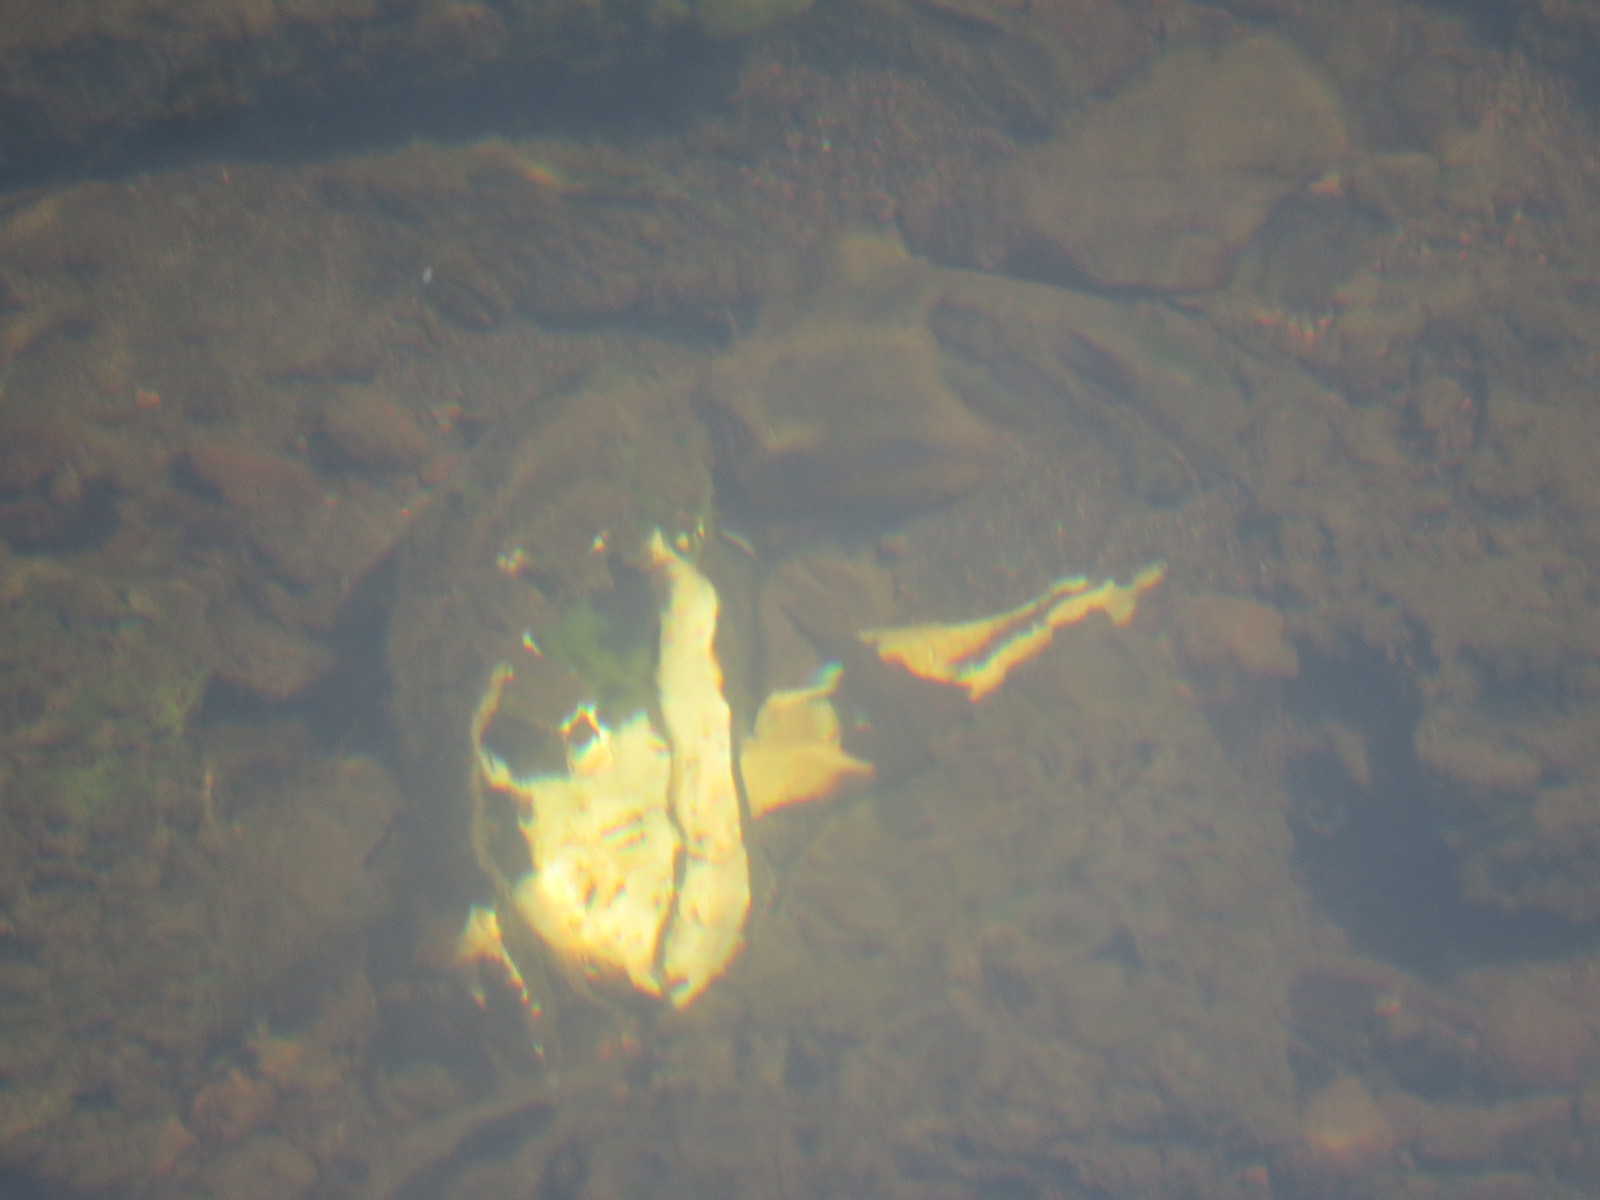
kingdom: Animalia
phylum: Mollusca
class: Bivalvia
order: Unionida
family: Unionidae
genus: Gonidea
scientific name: Gonidea angulata
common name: Western ridged mussel
